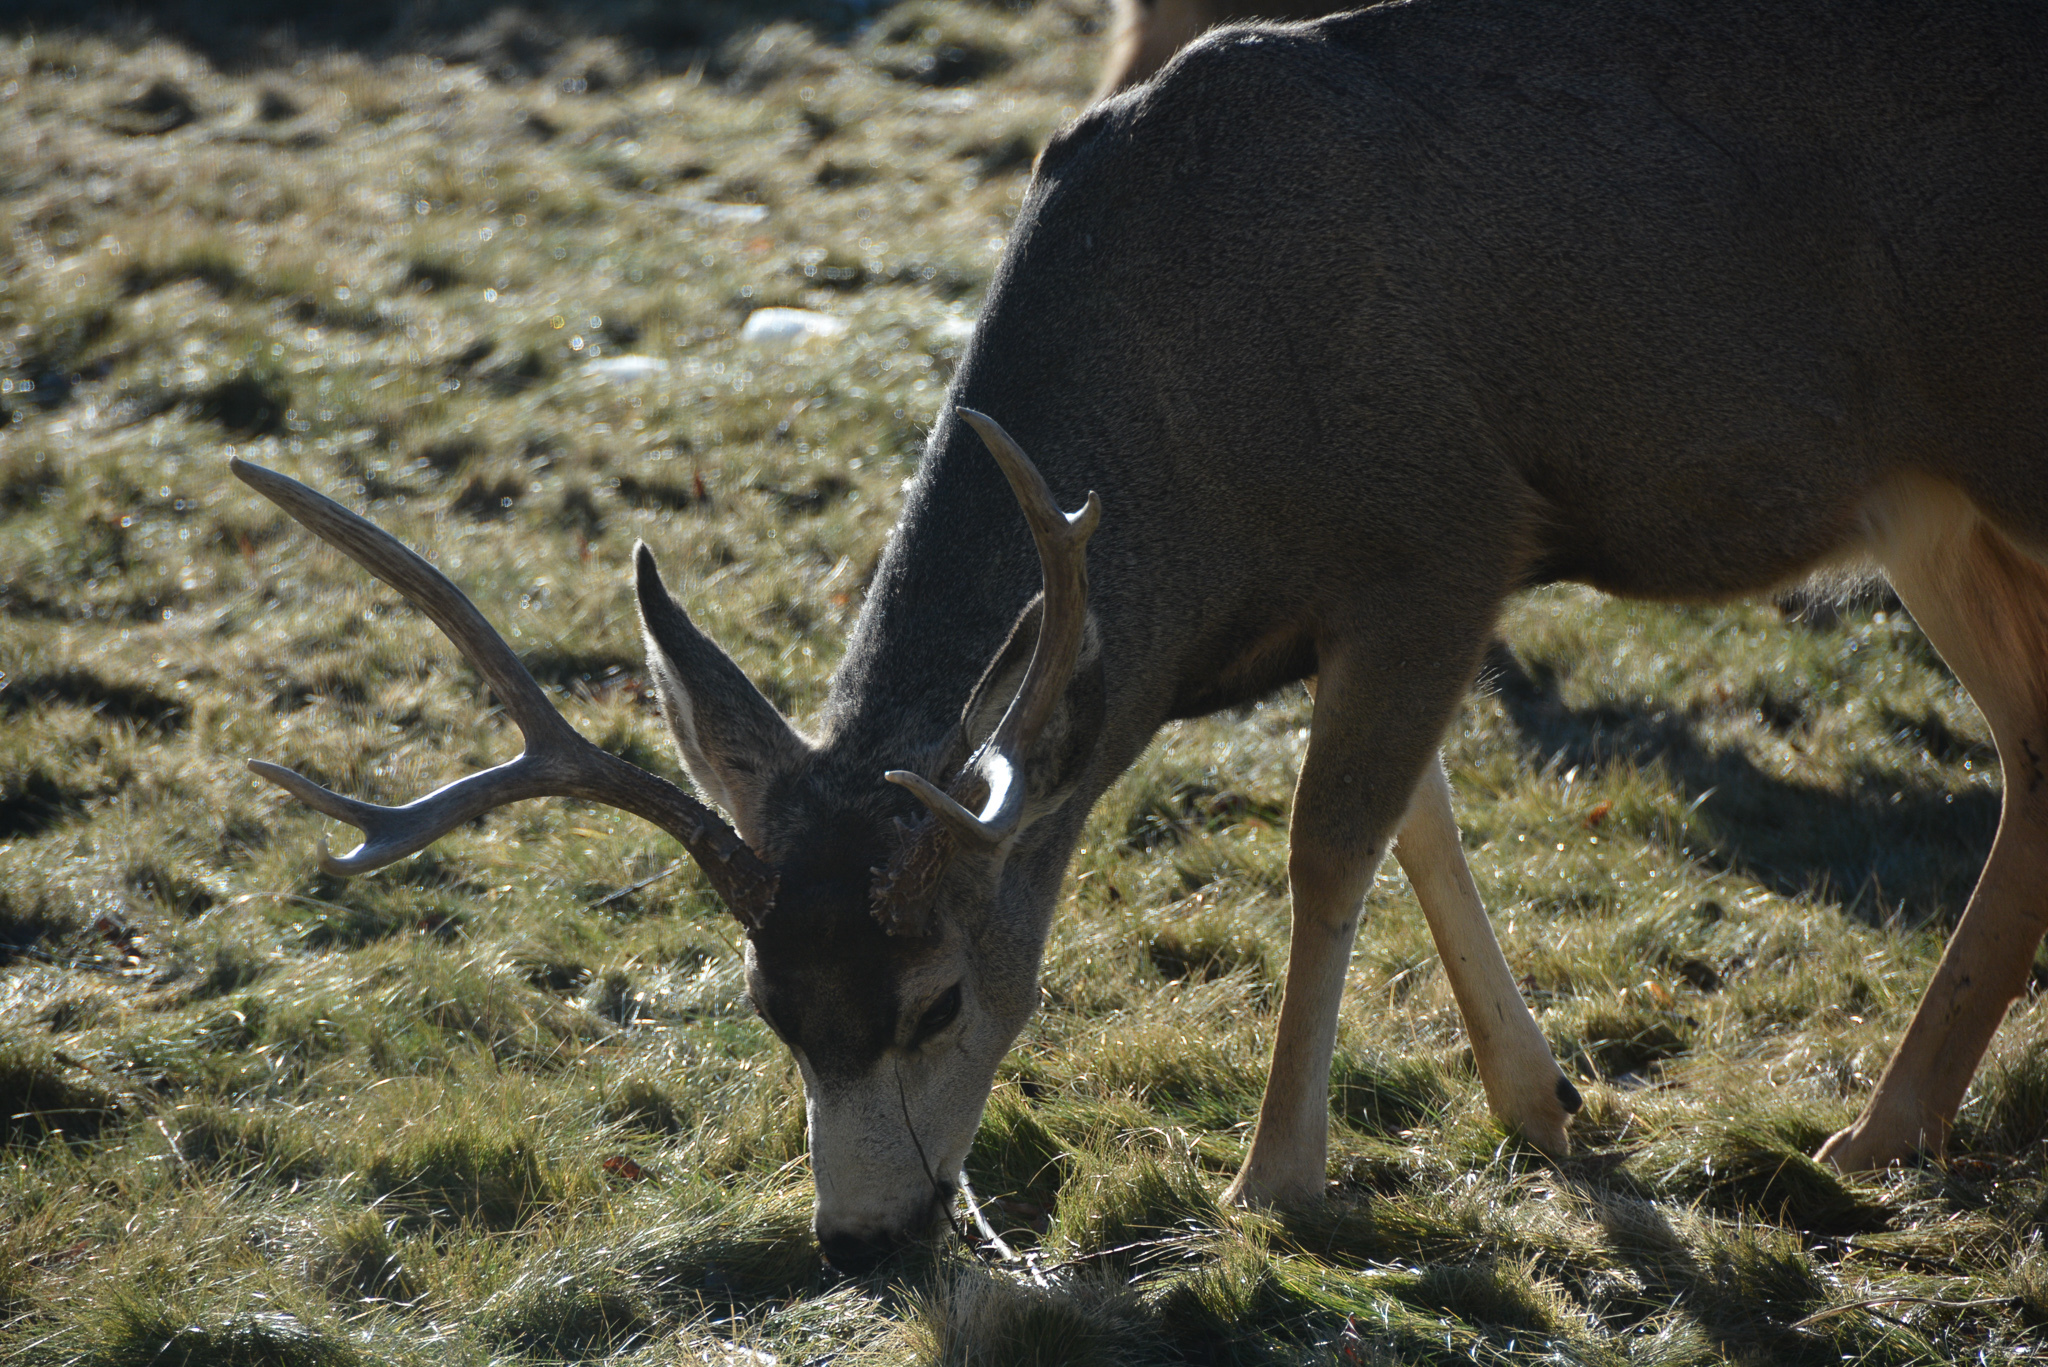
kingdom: Animalia
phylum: Chordata
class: Mammalia
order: Artiodactyla
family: Cervidae
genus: Odocoileus
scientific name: Odocoileus hemionus
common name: Mule deer
